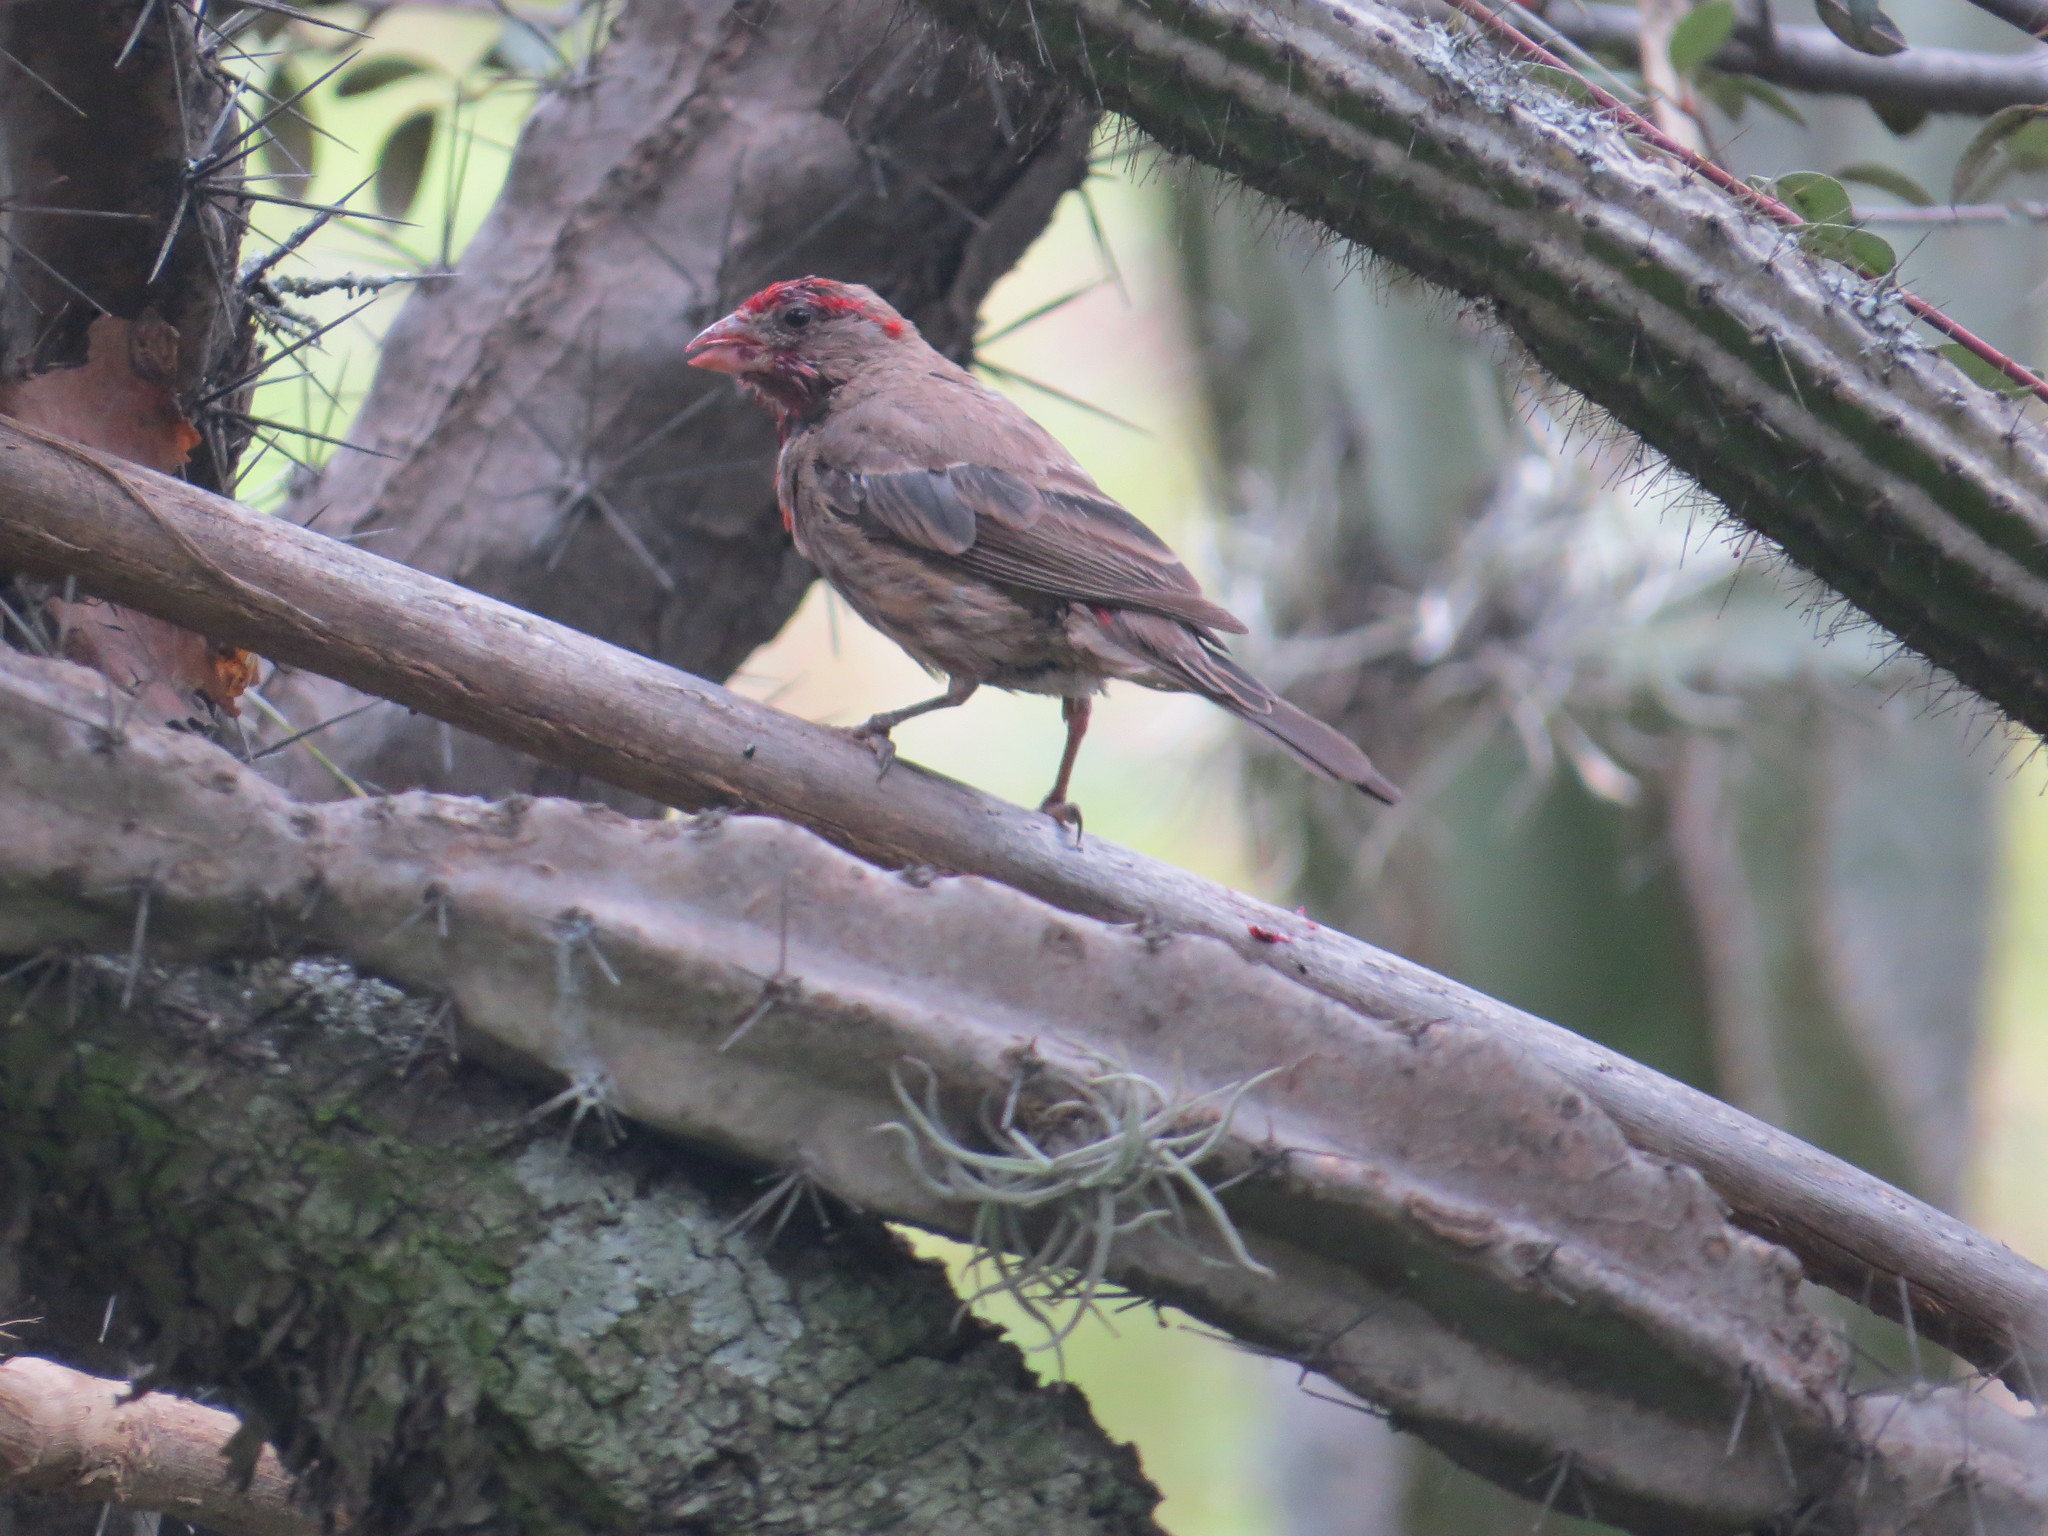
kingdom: Animalia
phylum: Chordata
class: Aves
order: Passeriformes
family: Fringillidae
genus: Haemorhous
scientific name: Haemorhous mexicanus
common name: House finch
